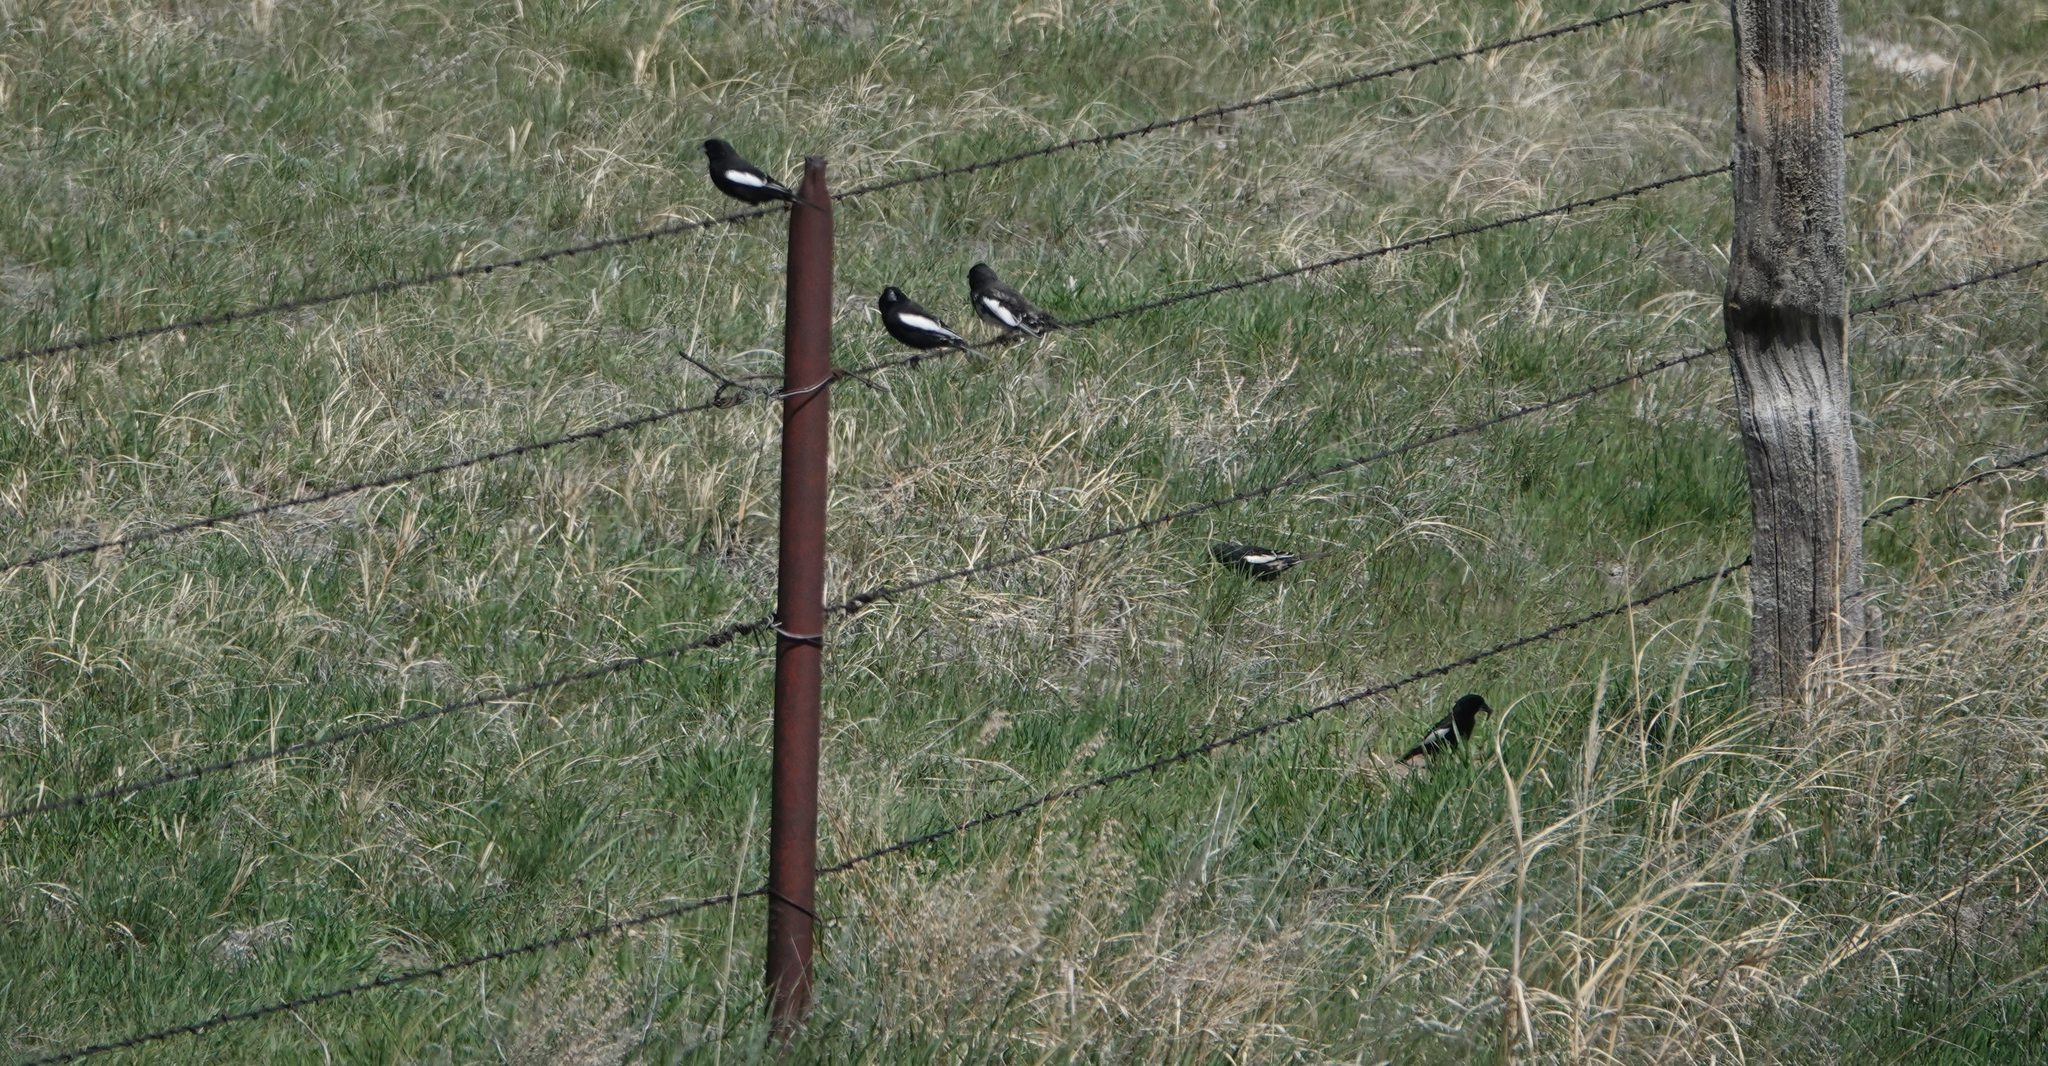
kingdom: Animalia
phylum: Chordata
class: Aves
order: Passeriformes
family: Passerellidae
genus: Calamospiza
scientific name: Calamospiza melanocorys
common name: Lark bunting
